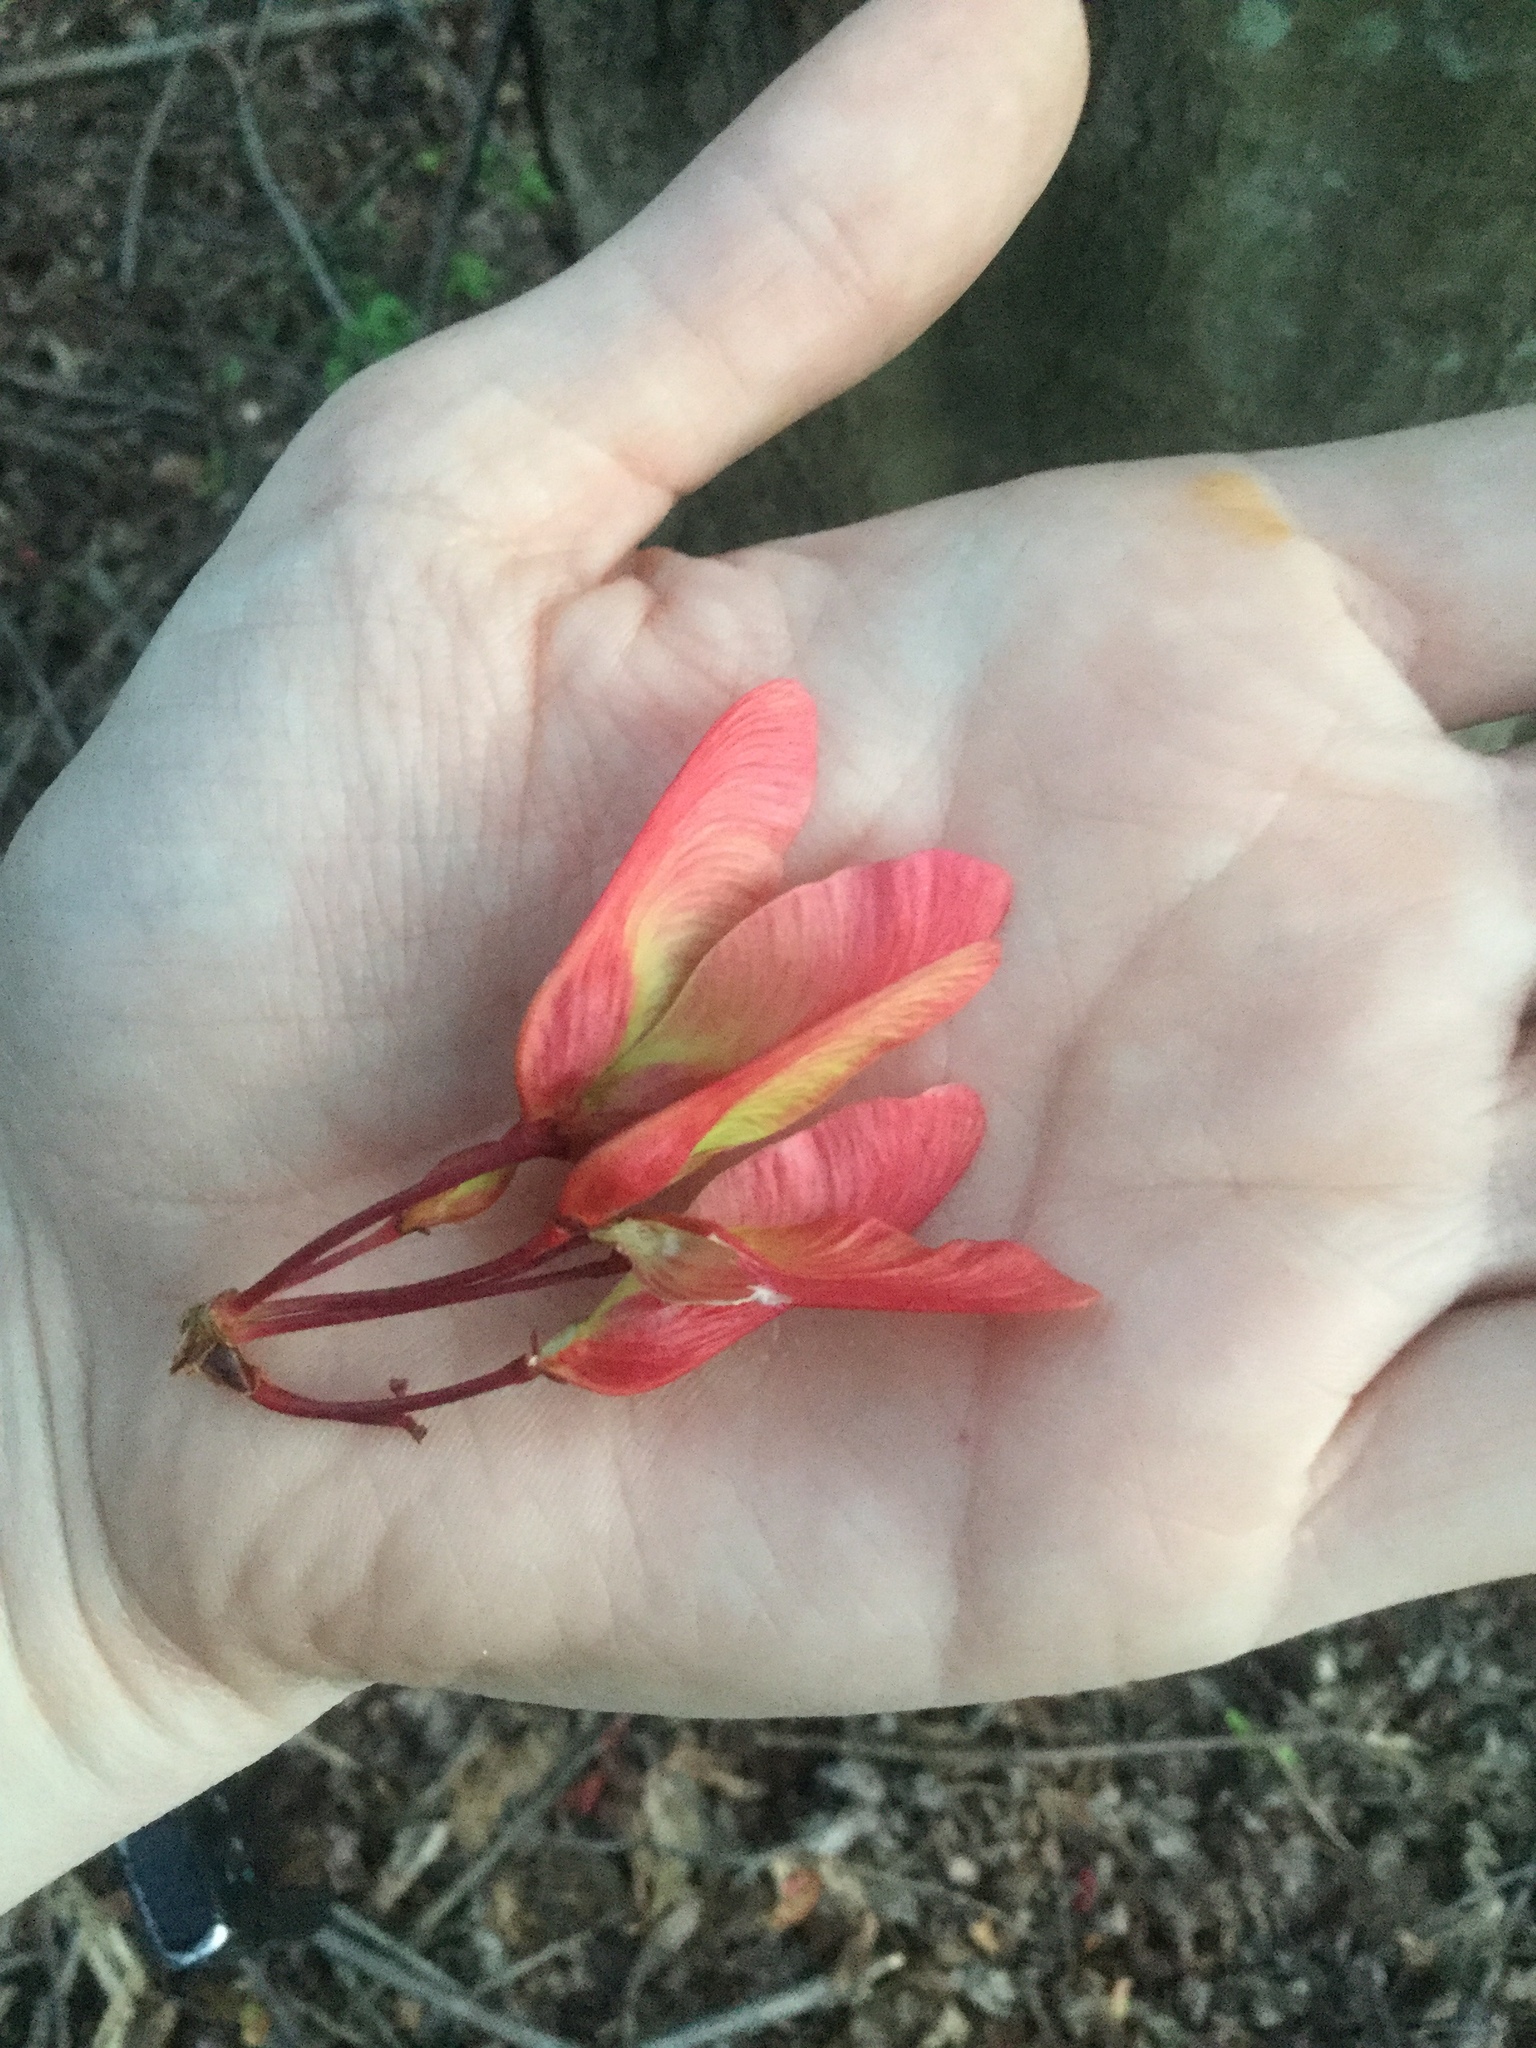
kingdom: Plantae
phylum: Tracheophyta
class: Magnoliopsida
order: Sapindales
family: Sapindaceae
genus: Acer
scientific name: Acer rubrum
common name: Red maple
